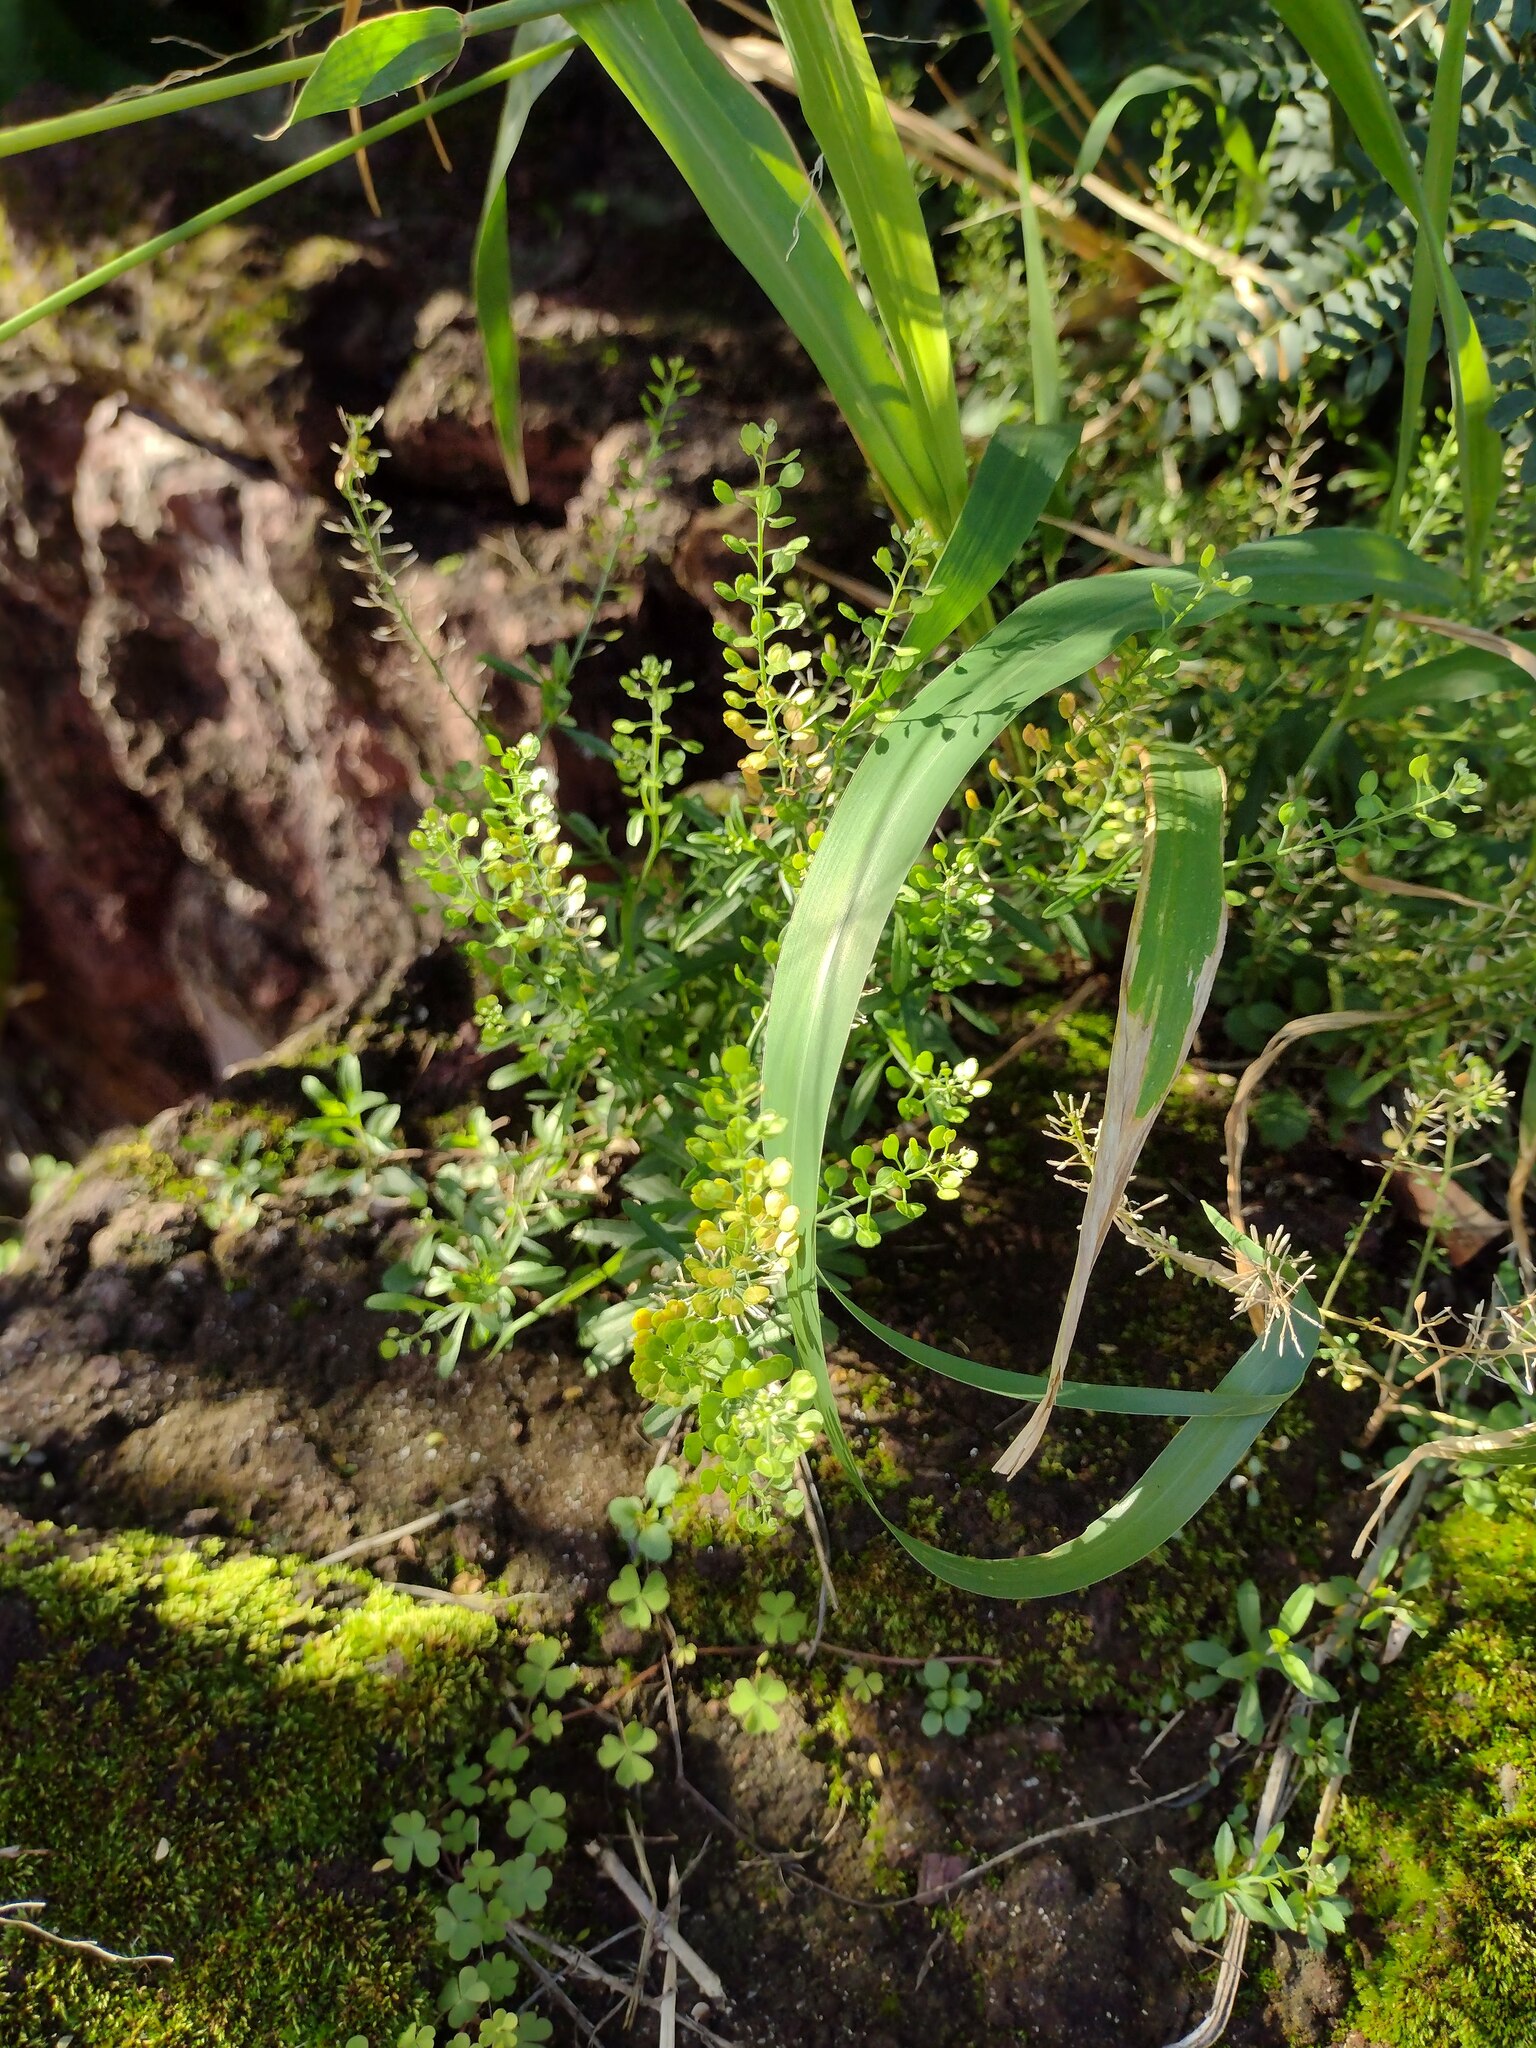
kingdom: Plantae
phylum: Tracheophyta
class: Magnoliopsida
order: Brassicales
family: Brassicaceae
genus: Lepidium
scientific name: Lepidium virginicum
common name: Least pepperwort
